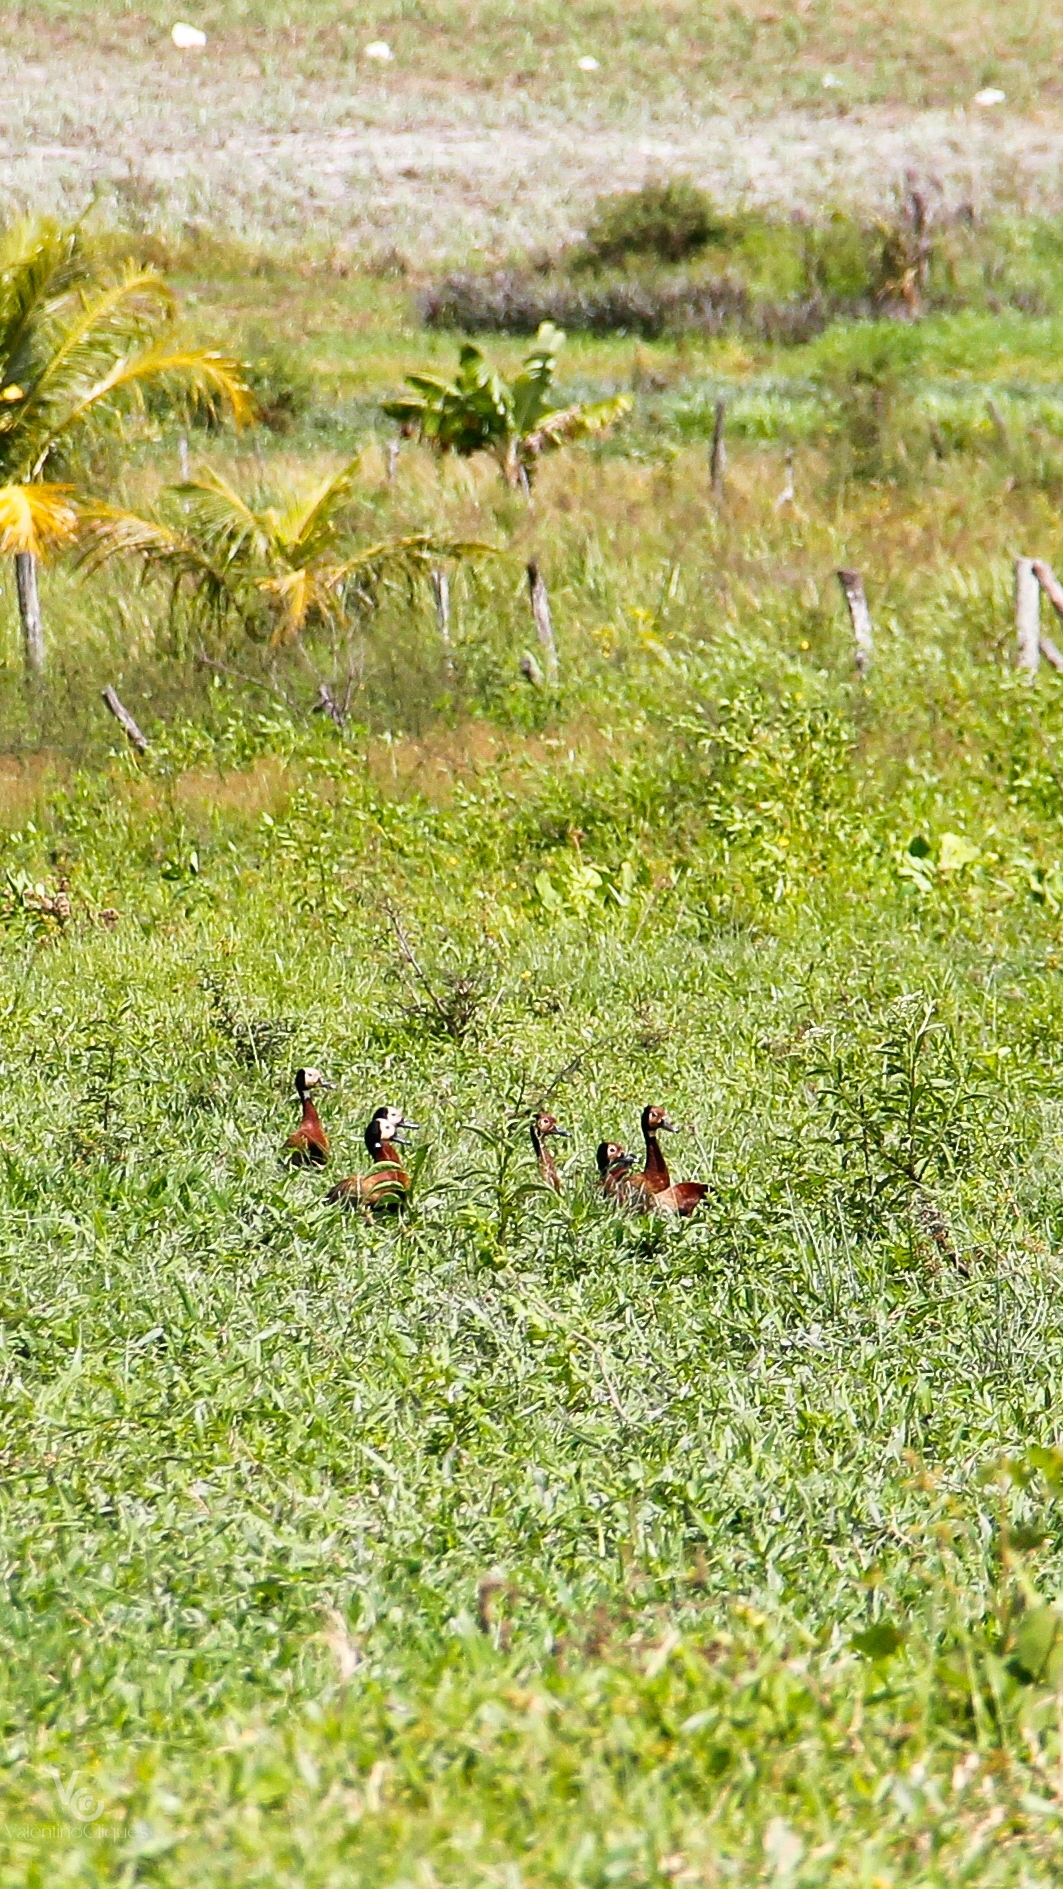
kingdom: Animalia
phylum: Chordata
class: Aves
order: Anseriformes
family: Anatidae
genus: Dendrocygna
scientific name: Dendrocygna viduata
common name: White-faced whistling duck
